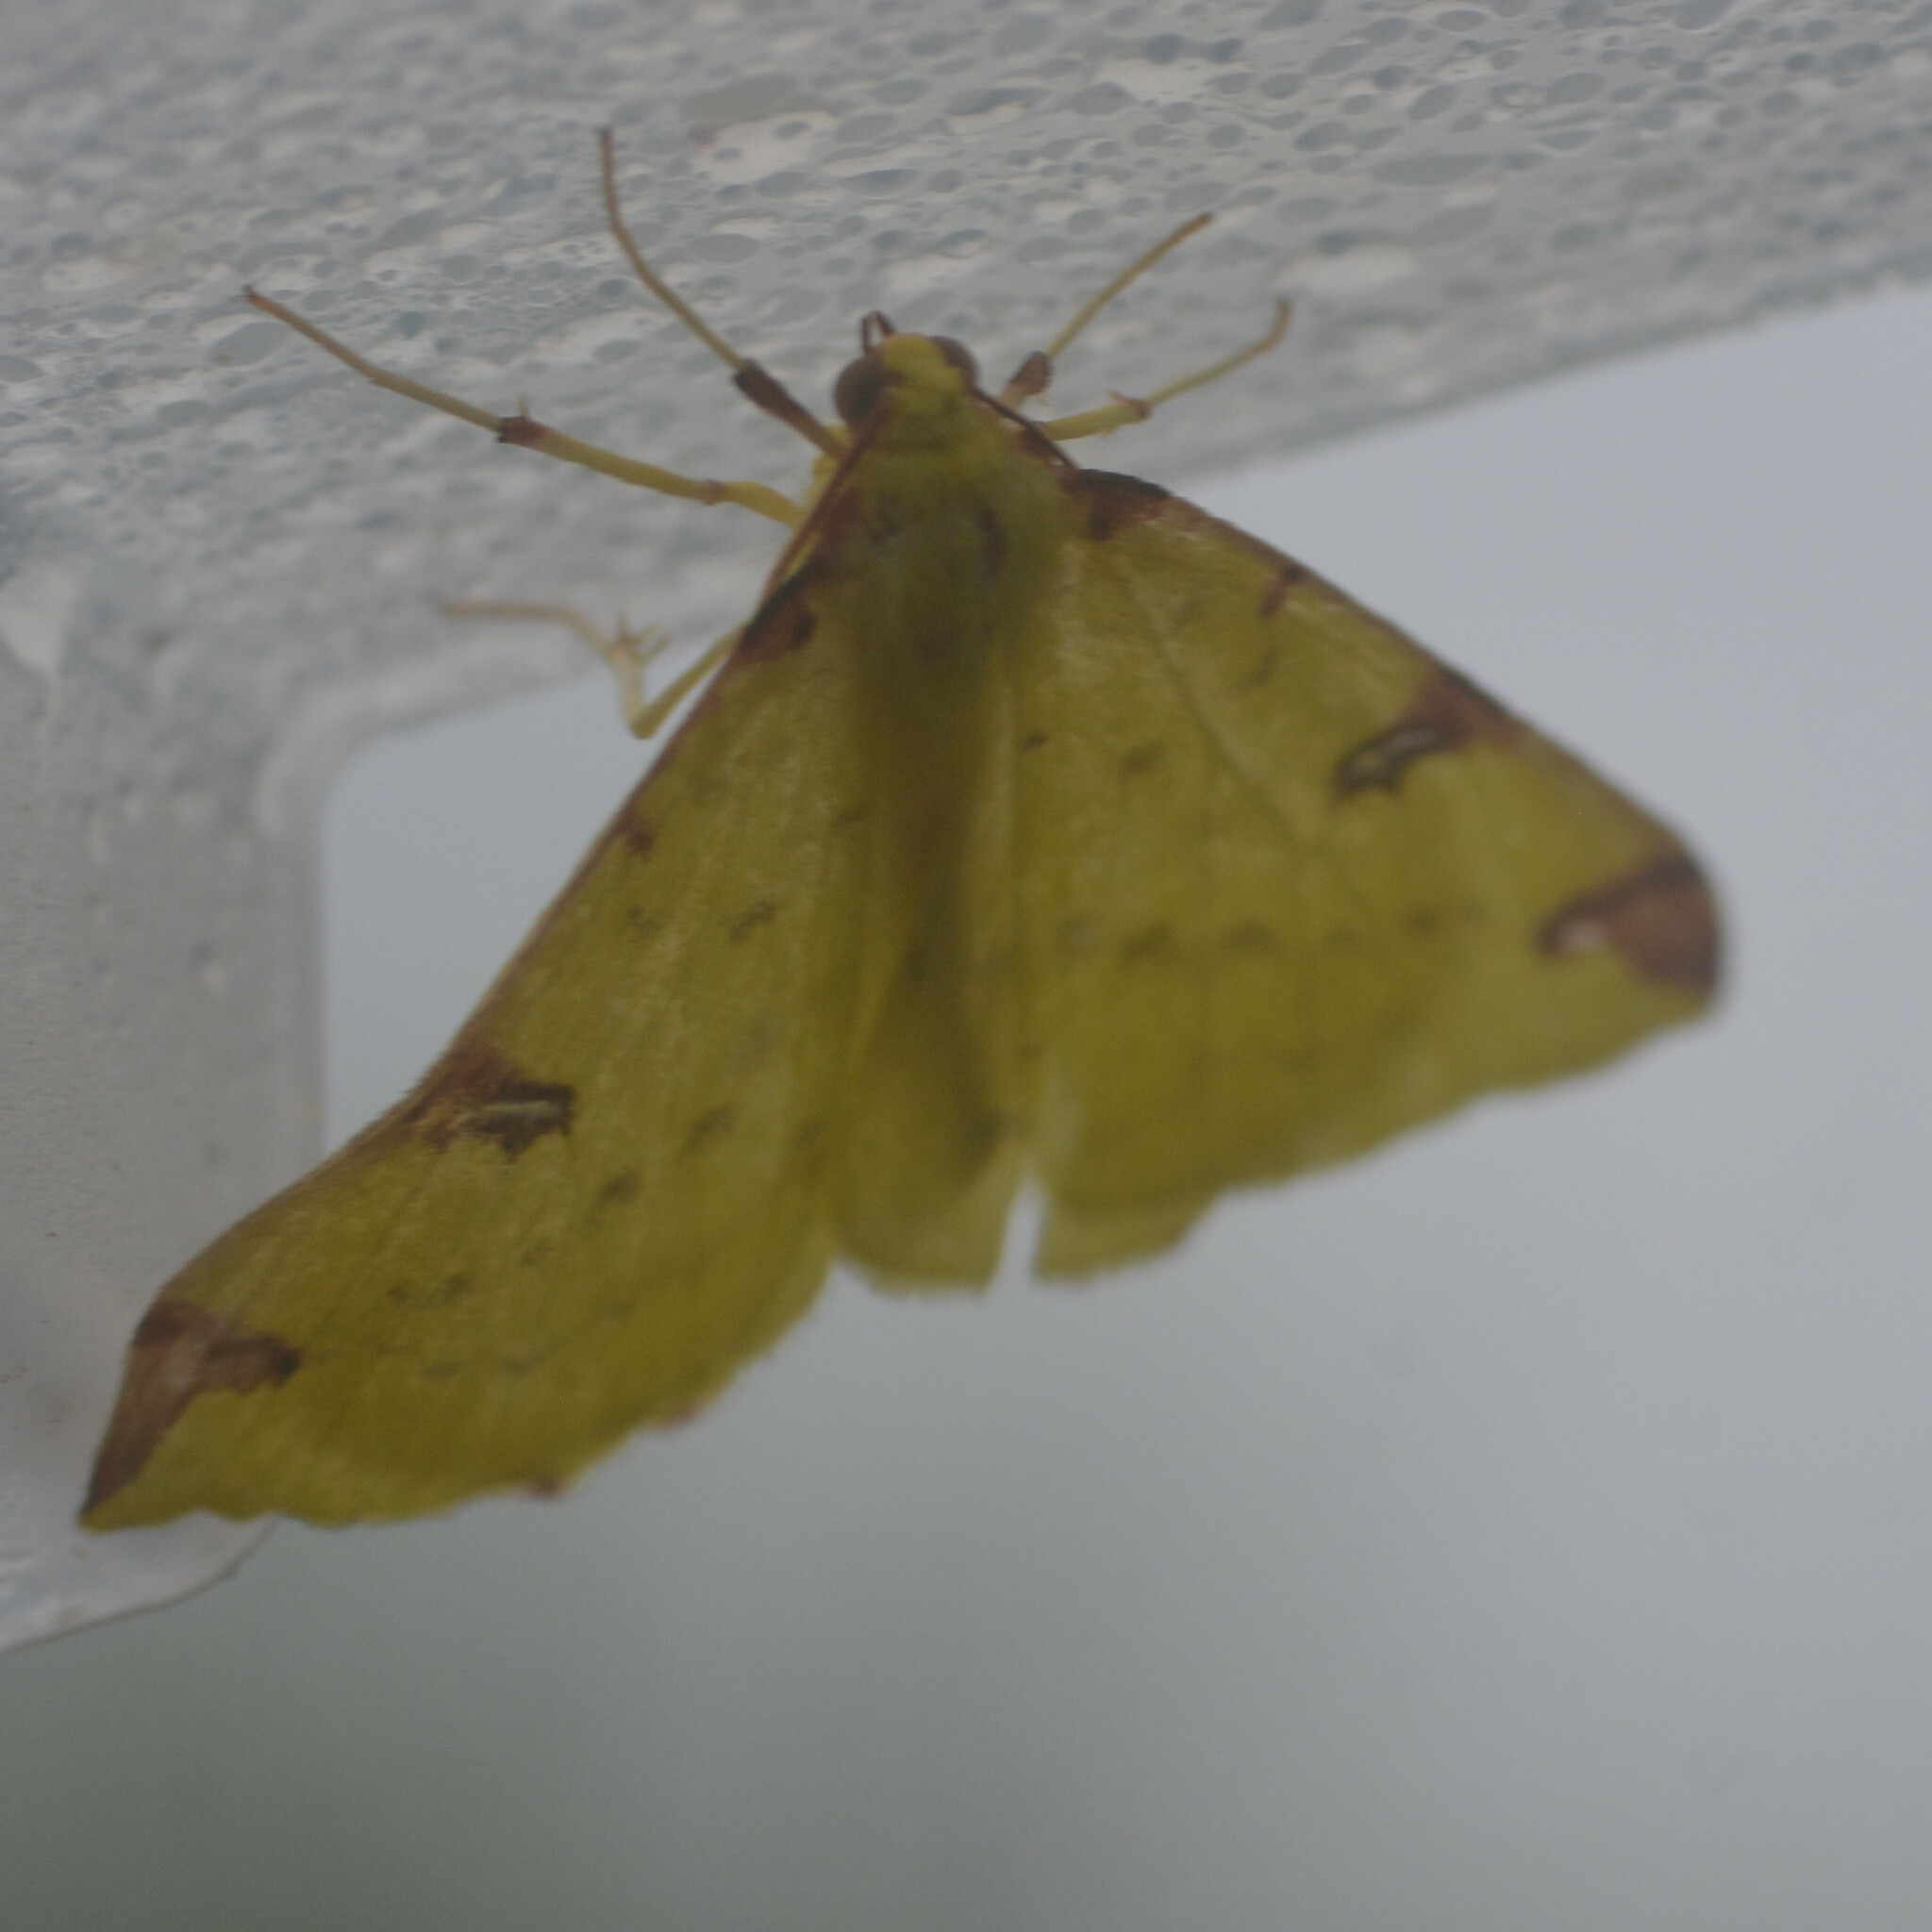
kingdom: Animalia
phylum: Arthropoda
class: Insecta
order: Lepidoptera
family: Geometridae
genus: Opisthograptis
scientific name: Opisthograptis luteolata
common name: Brimstone moth
